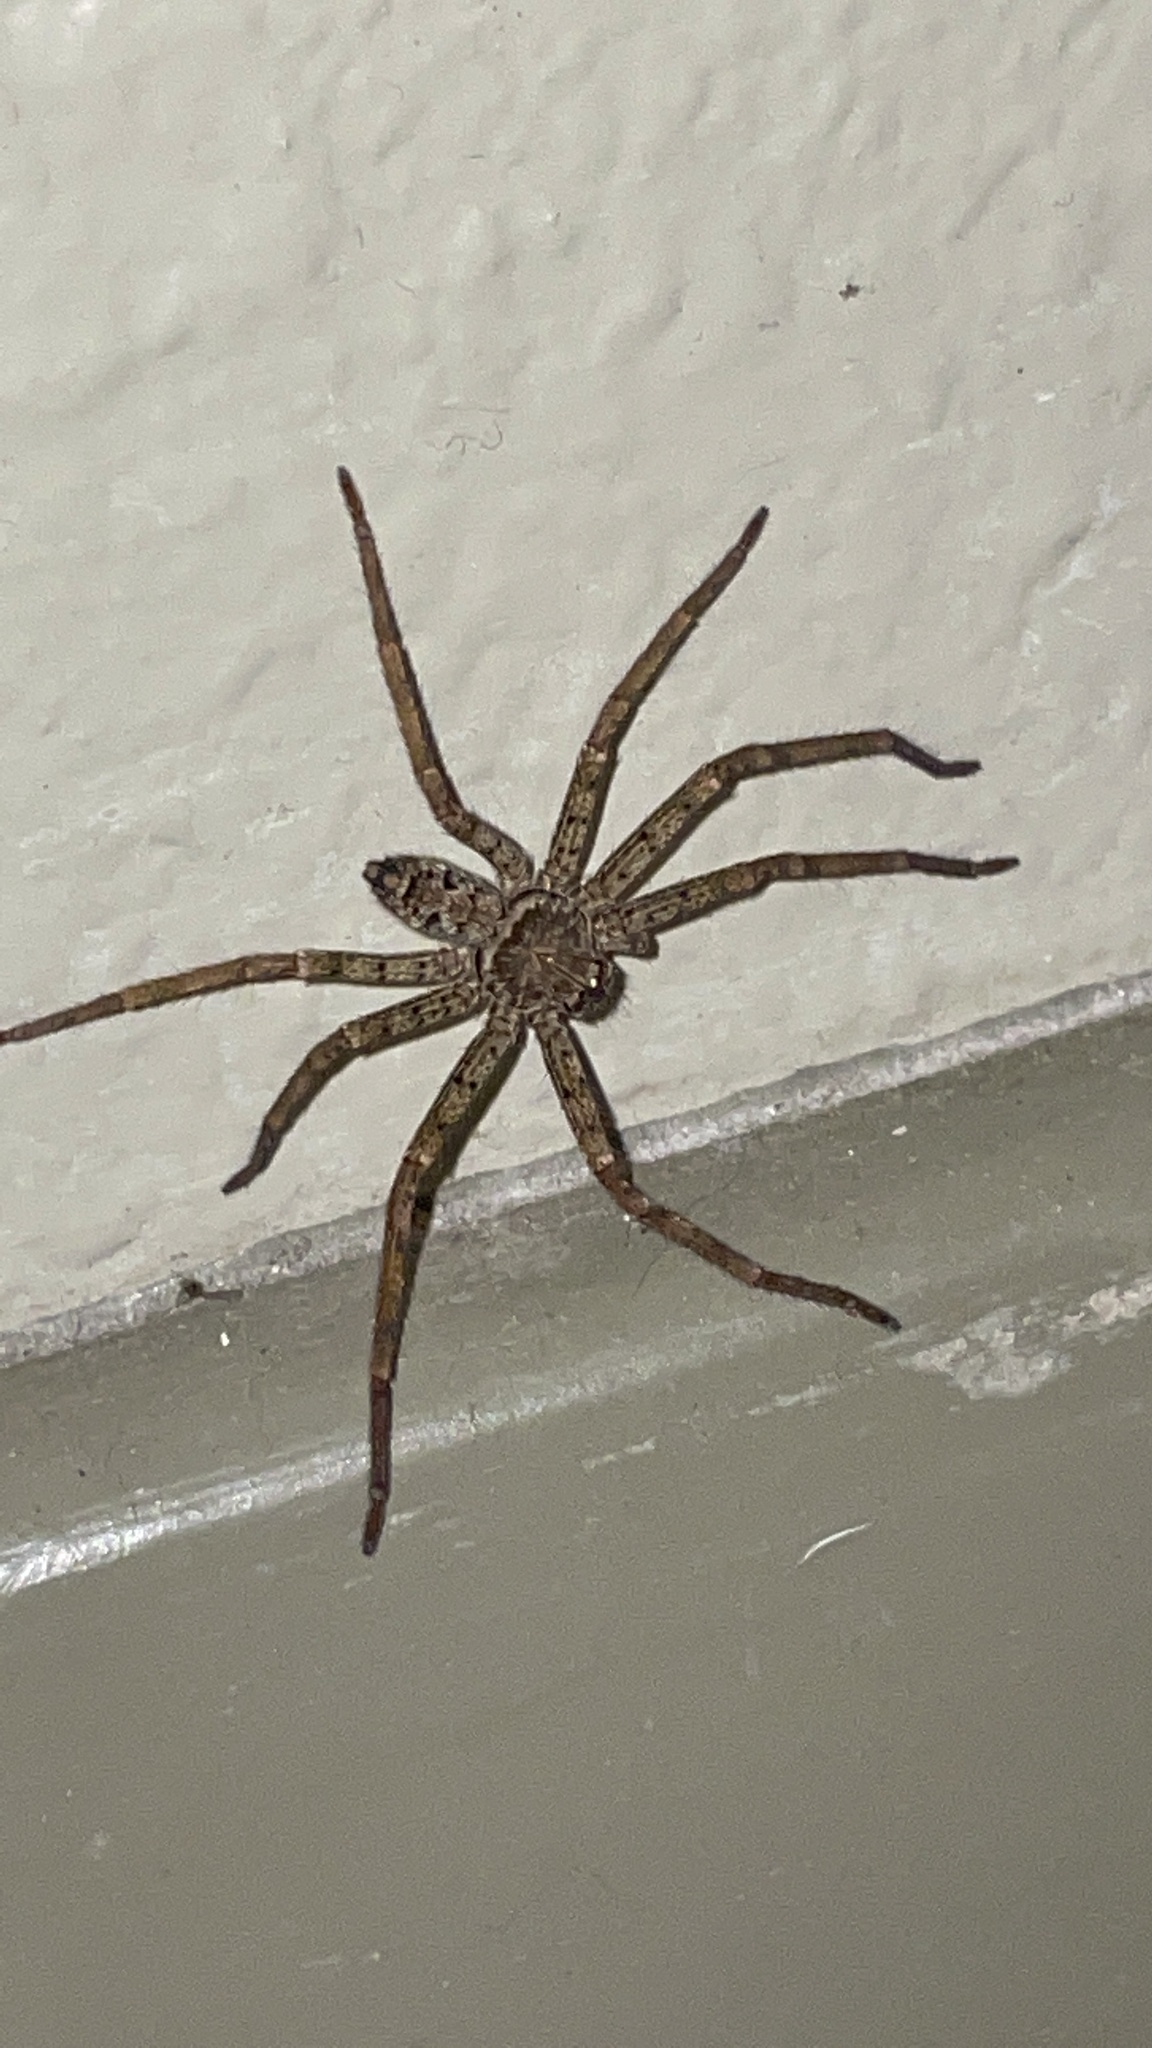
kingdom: Animalia
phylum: Arthropoda
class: Arachnida
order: Araneae
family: Sparassidae
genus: Heteropoda
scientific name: Heteropoda venatoria
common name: Huntsman spider
